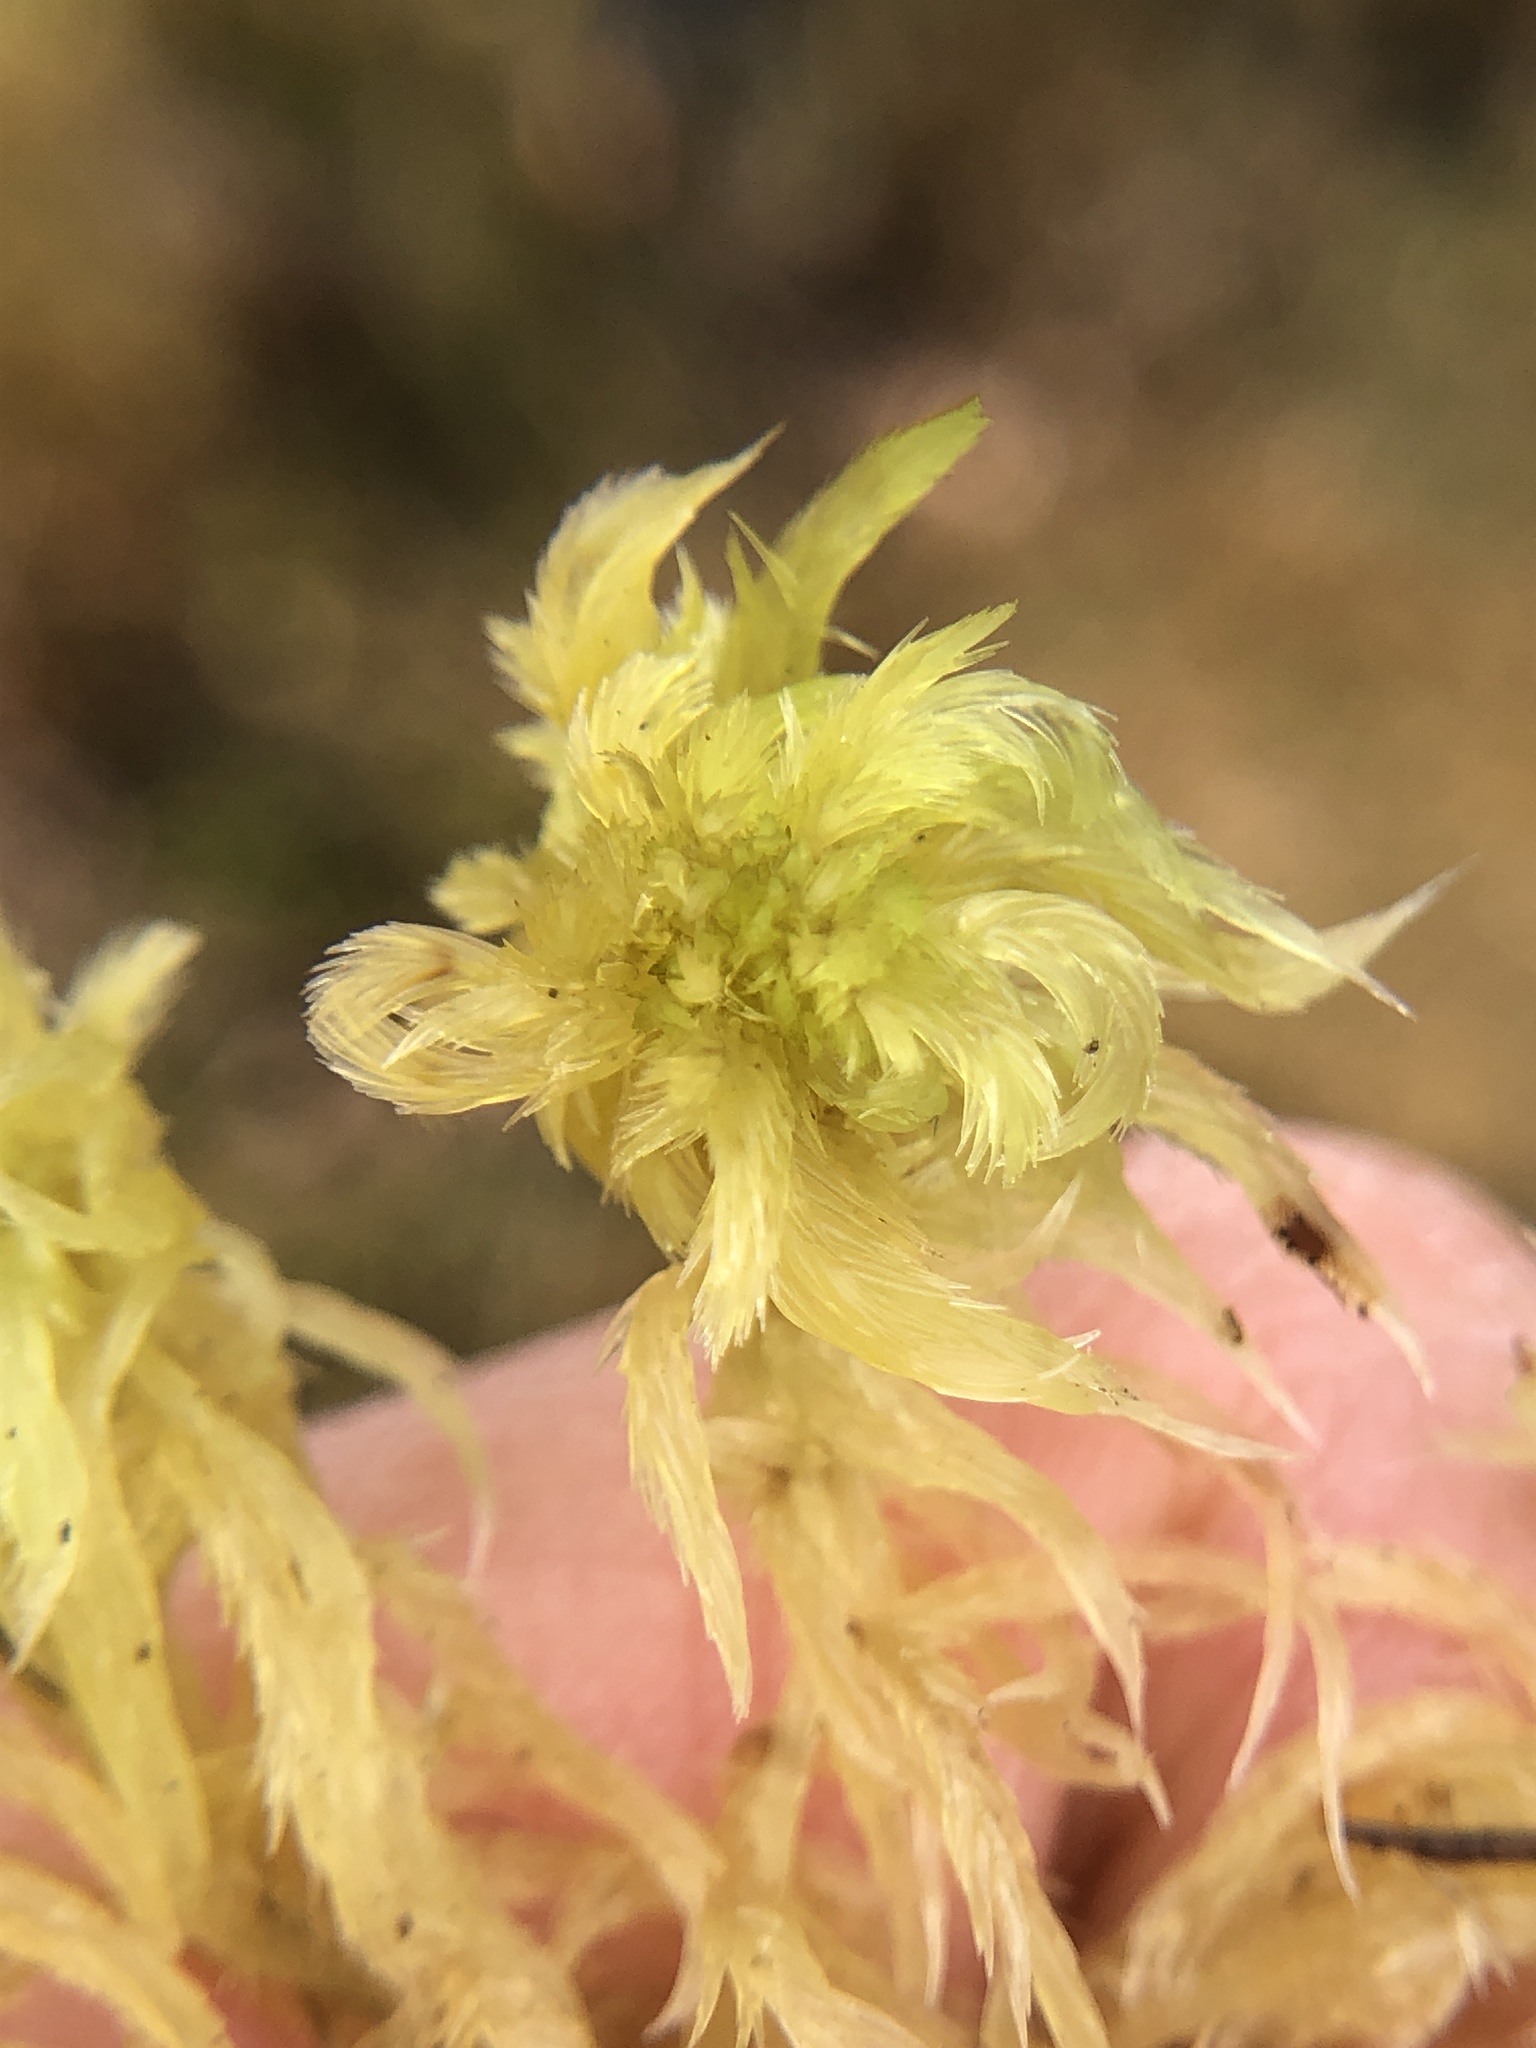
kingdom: Plantae
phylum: Bryophyta
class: Sphagnopsida
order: Sphagnales
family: Sphagnaceae
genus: Sphagnum
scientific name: Sphagnum cuspidatum
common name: Feathery peat moss
